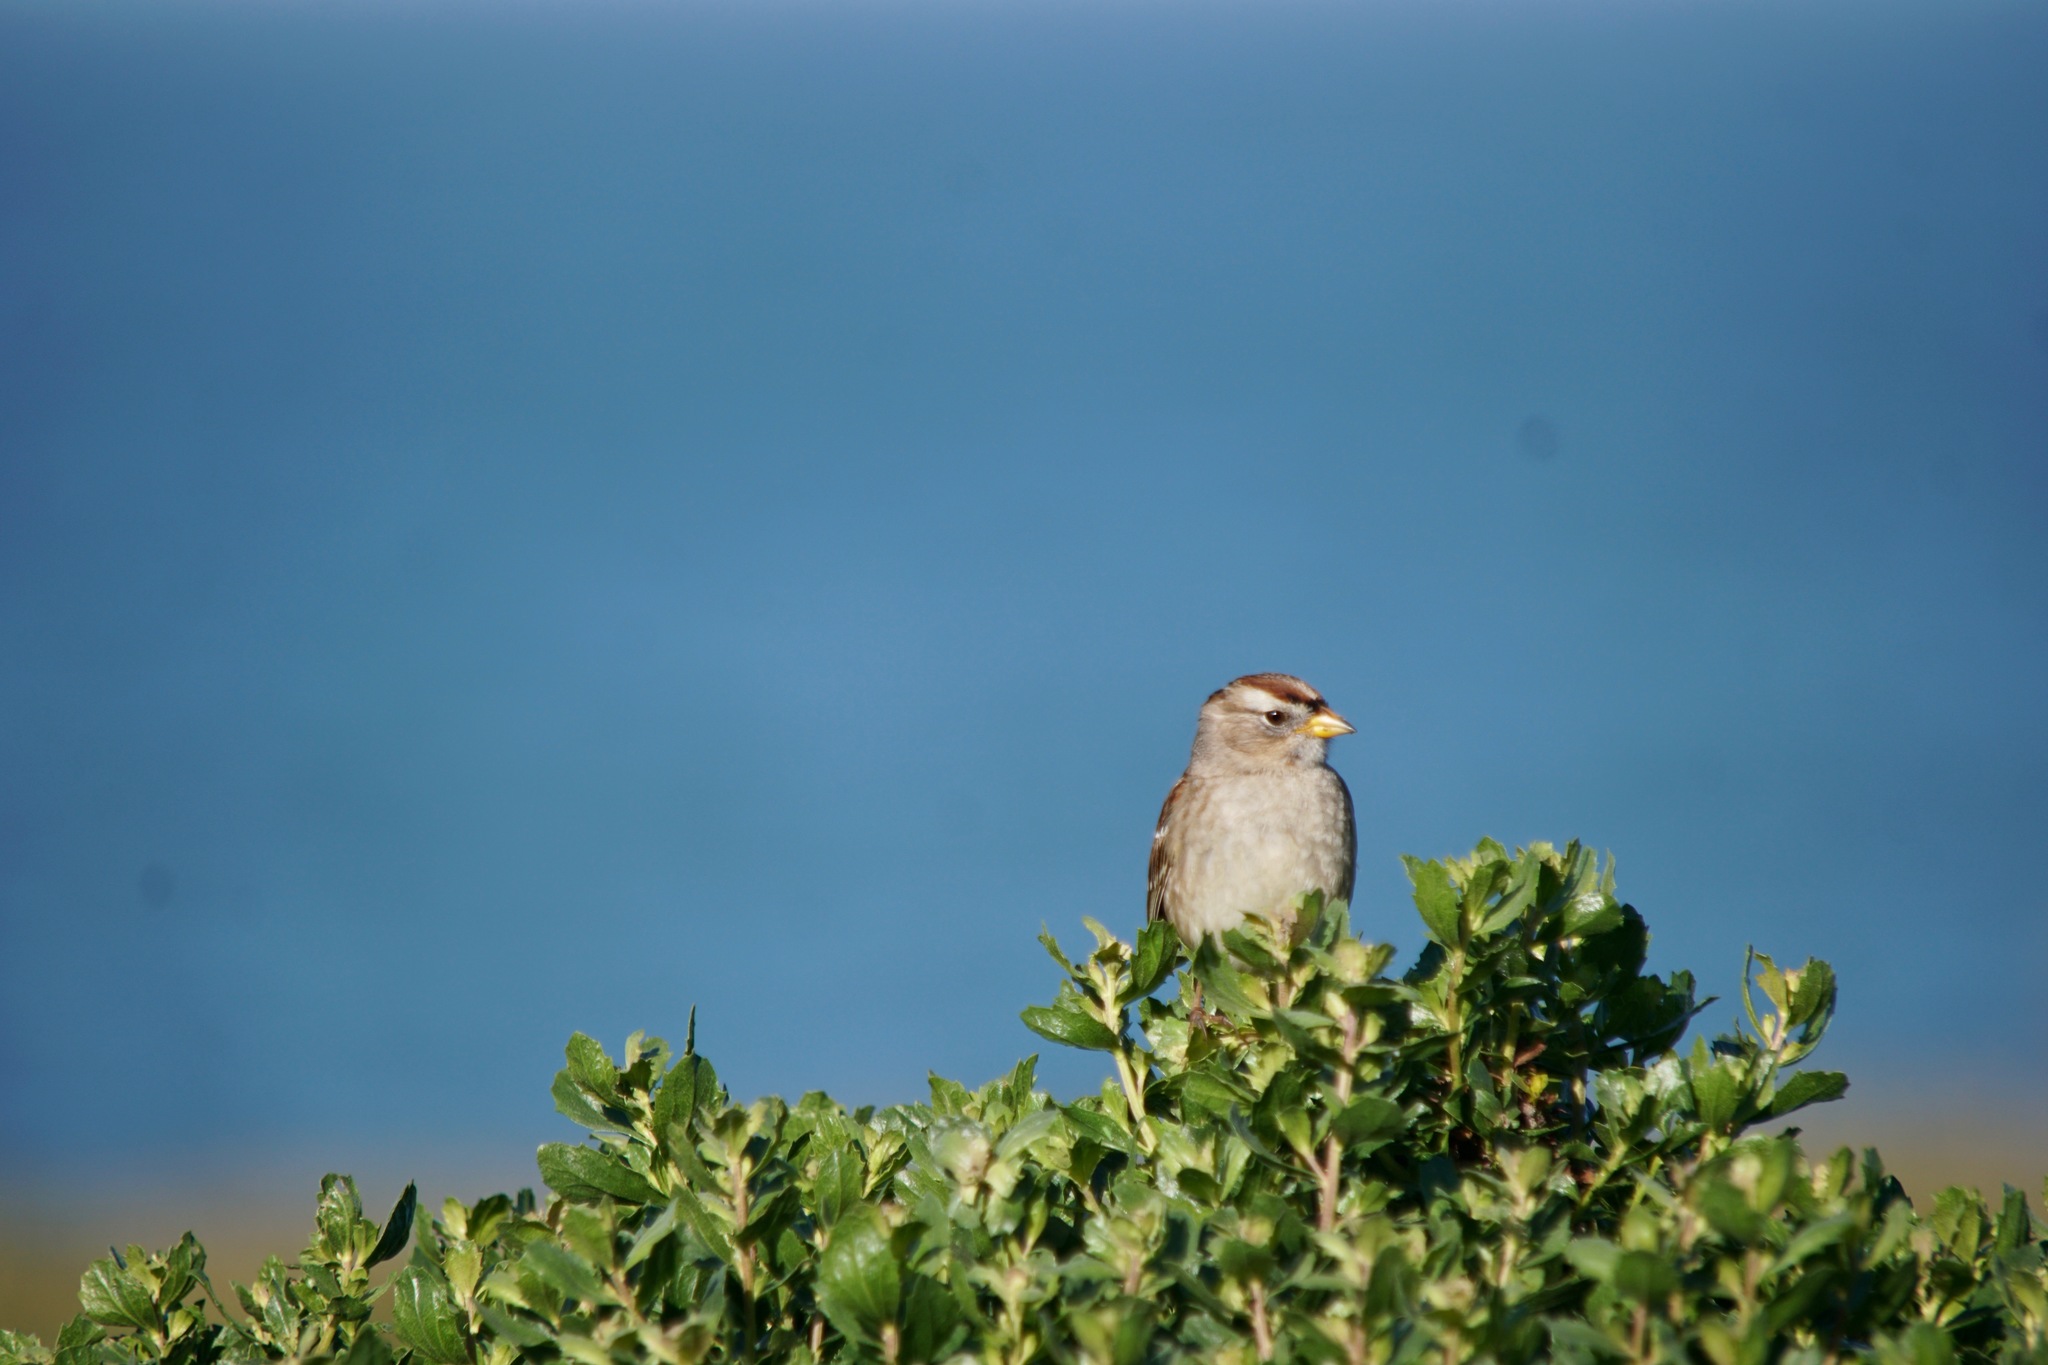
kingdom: Animalia
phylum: Chordata
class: Aves
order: Passeriformes
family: Passerellidae
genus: Zonotrichia
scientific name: Zonotrichia leucophrys
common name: White-crowned sparrow
